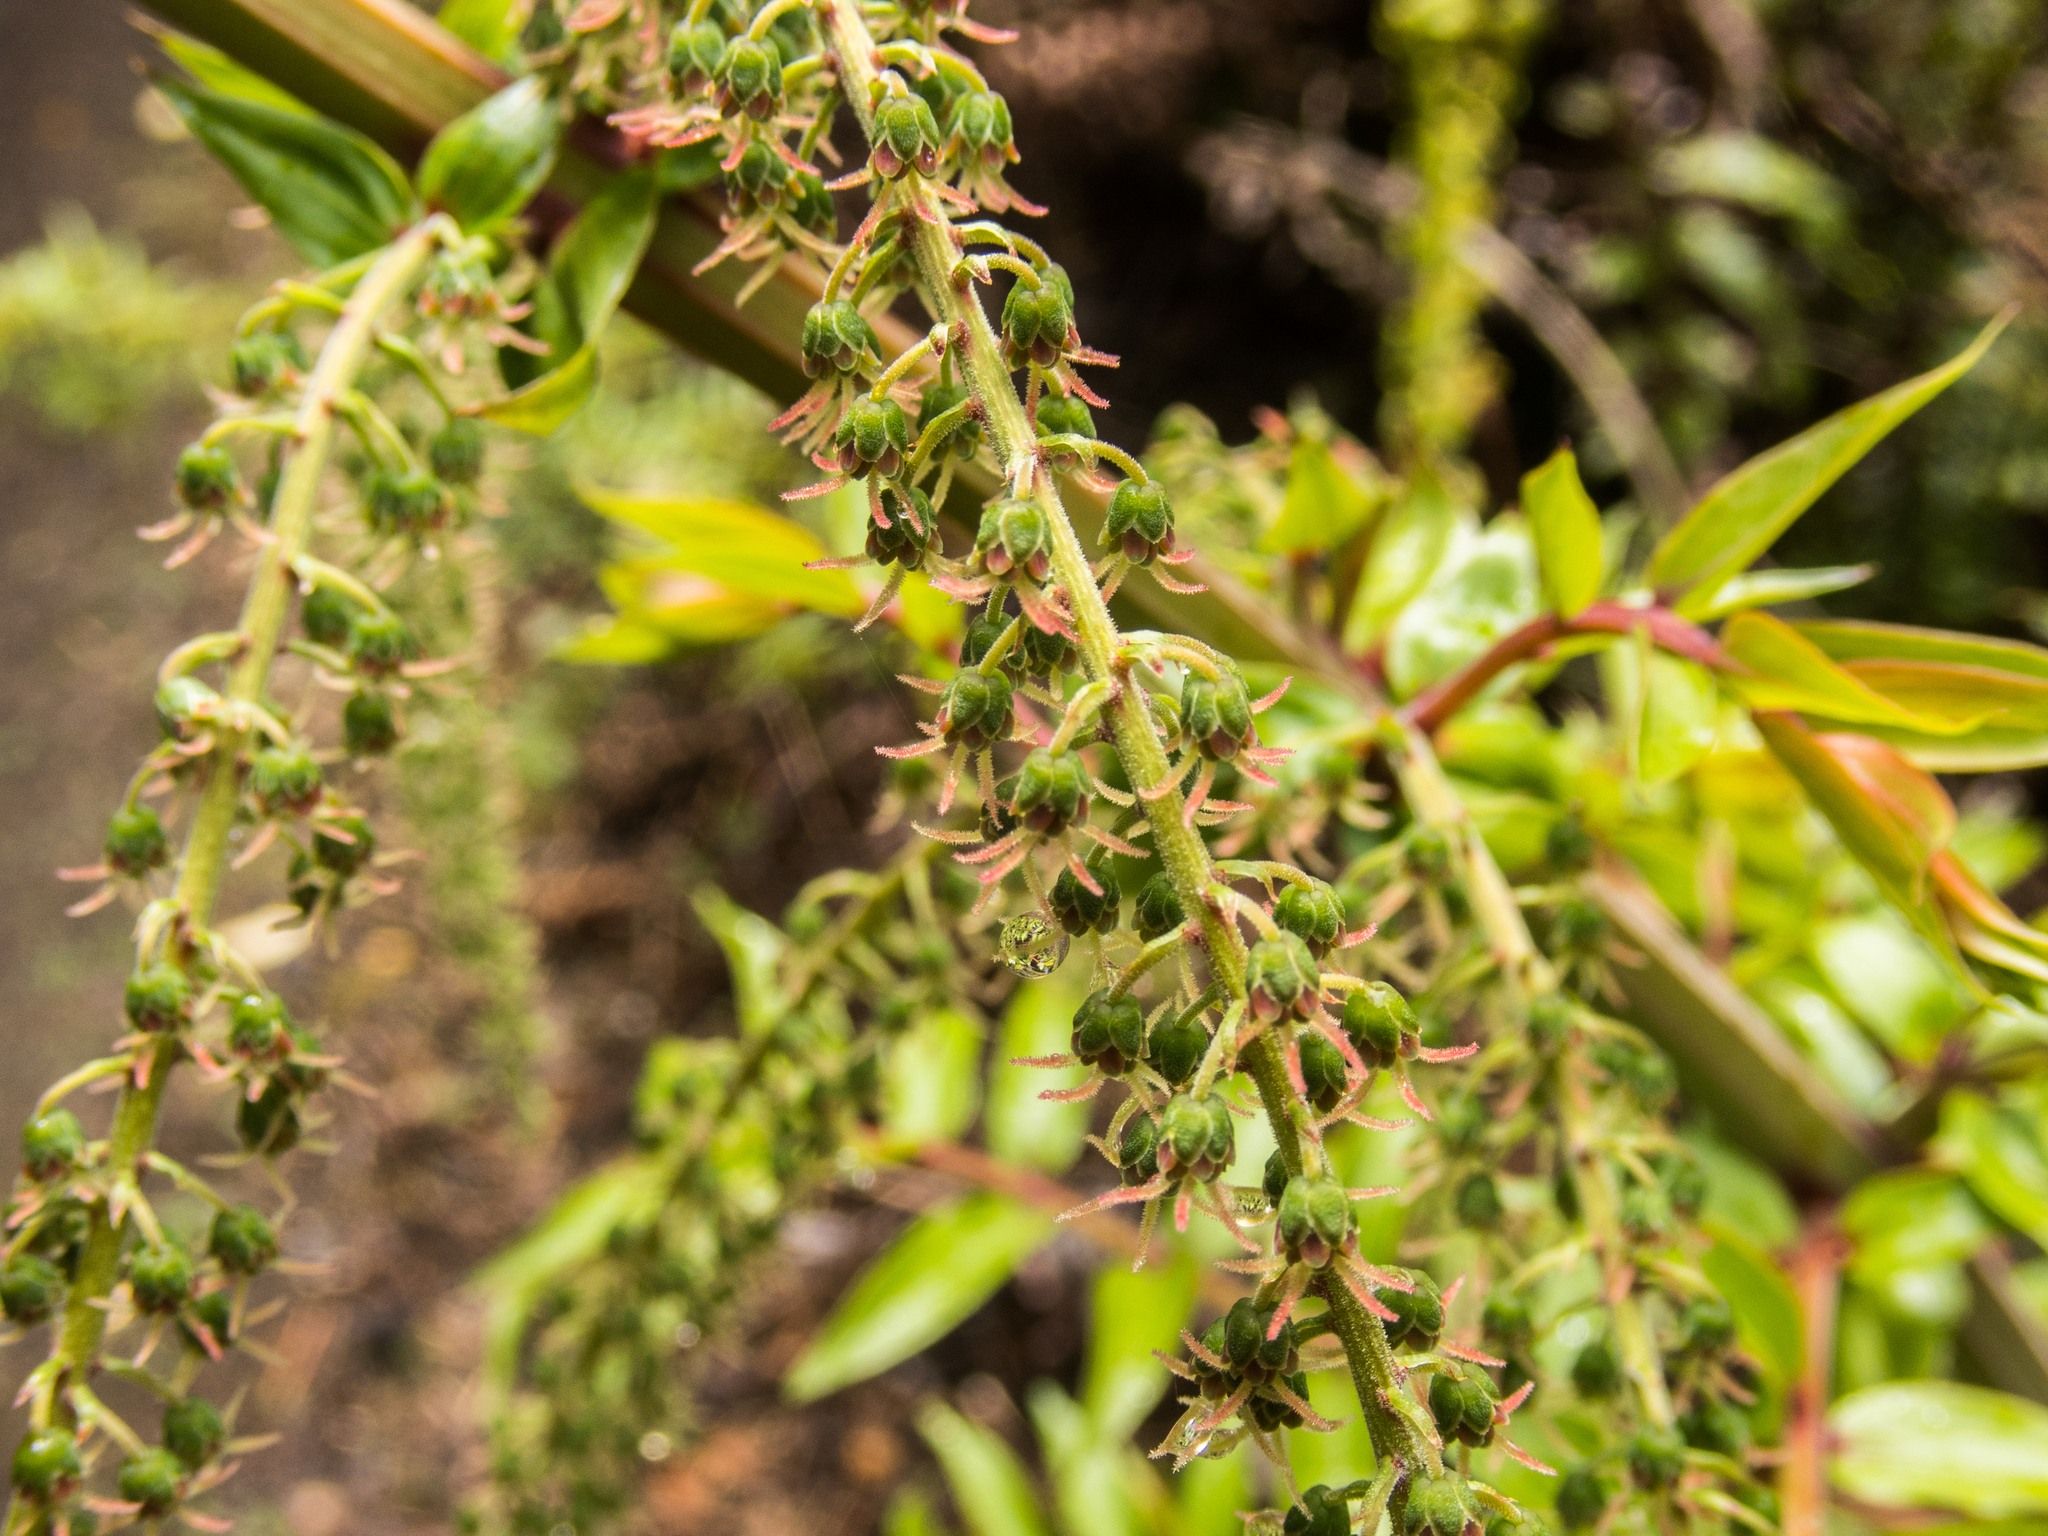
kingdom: Plantae
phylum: Tracheophyta
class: Magnoliopsida
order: Cucurbitales
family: Coriariaceae
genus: Coriaria
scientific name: Coriaria pteridoides
